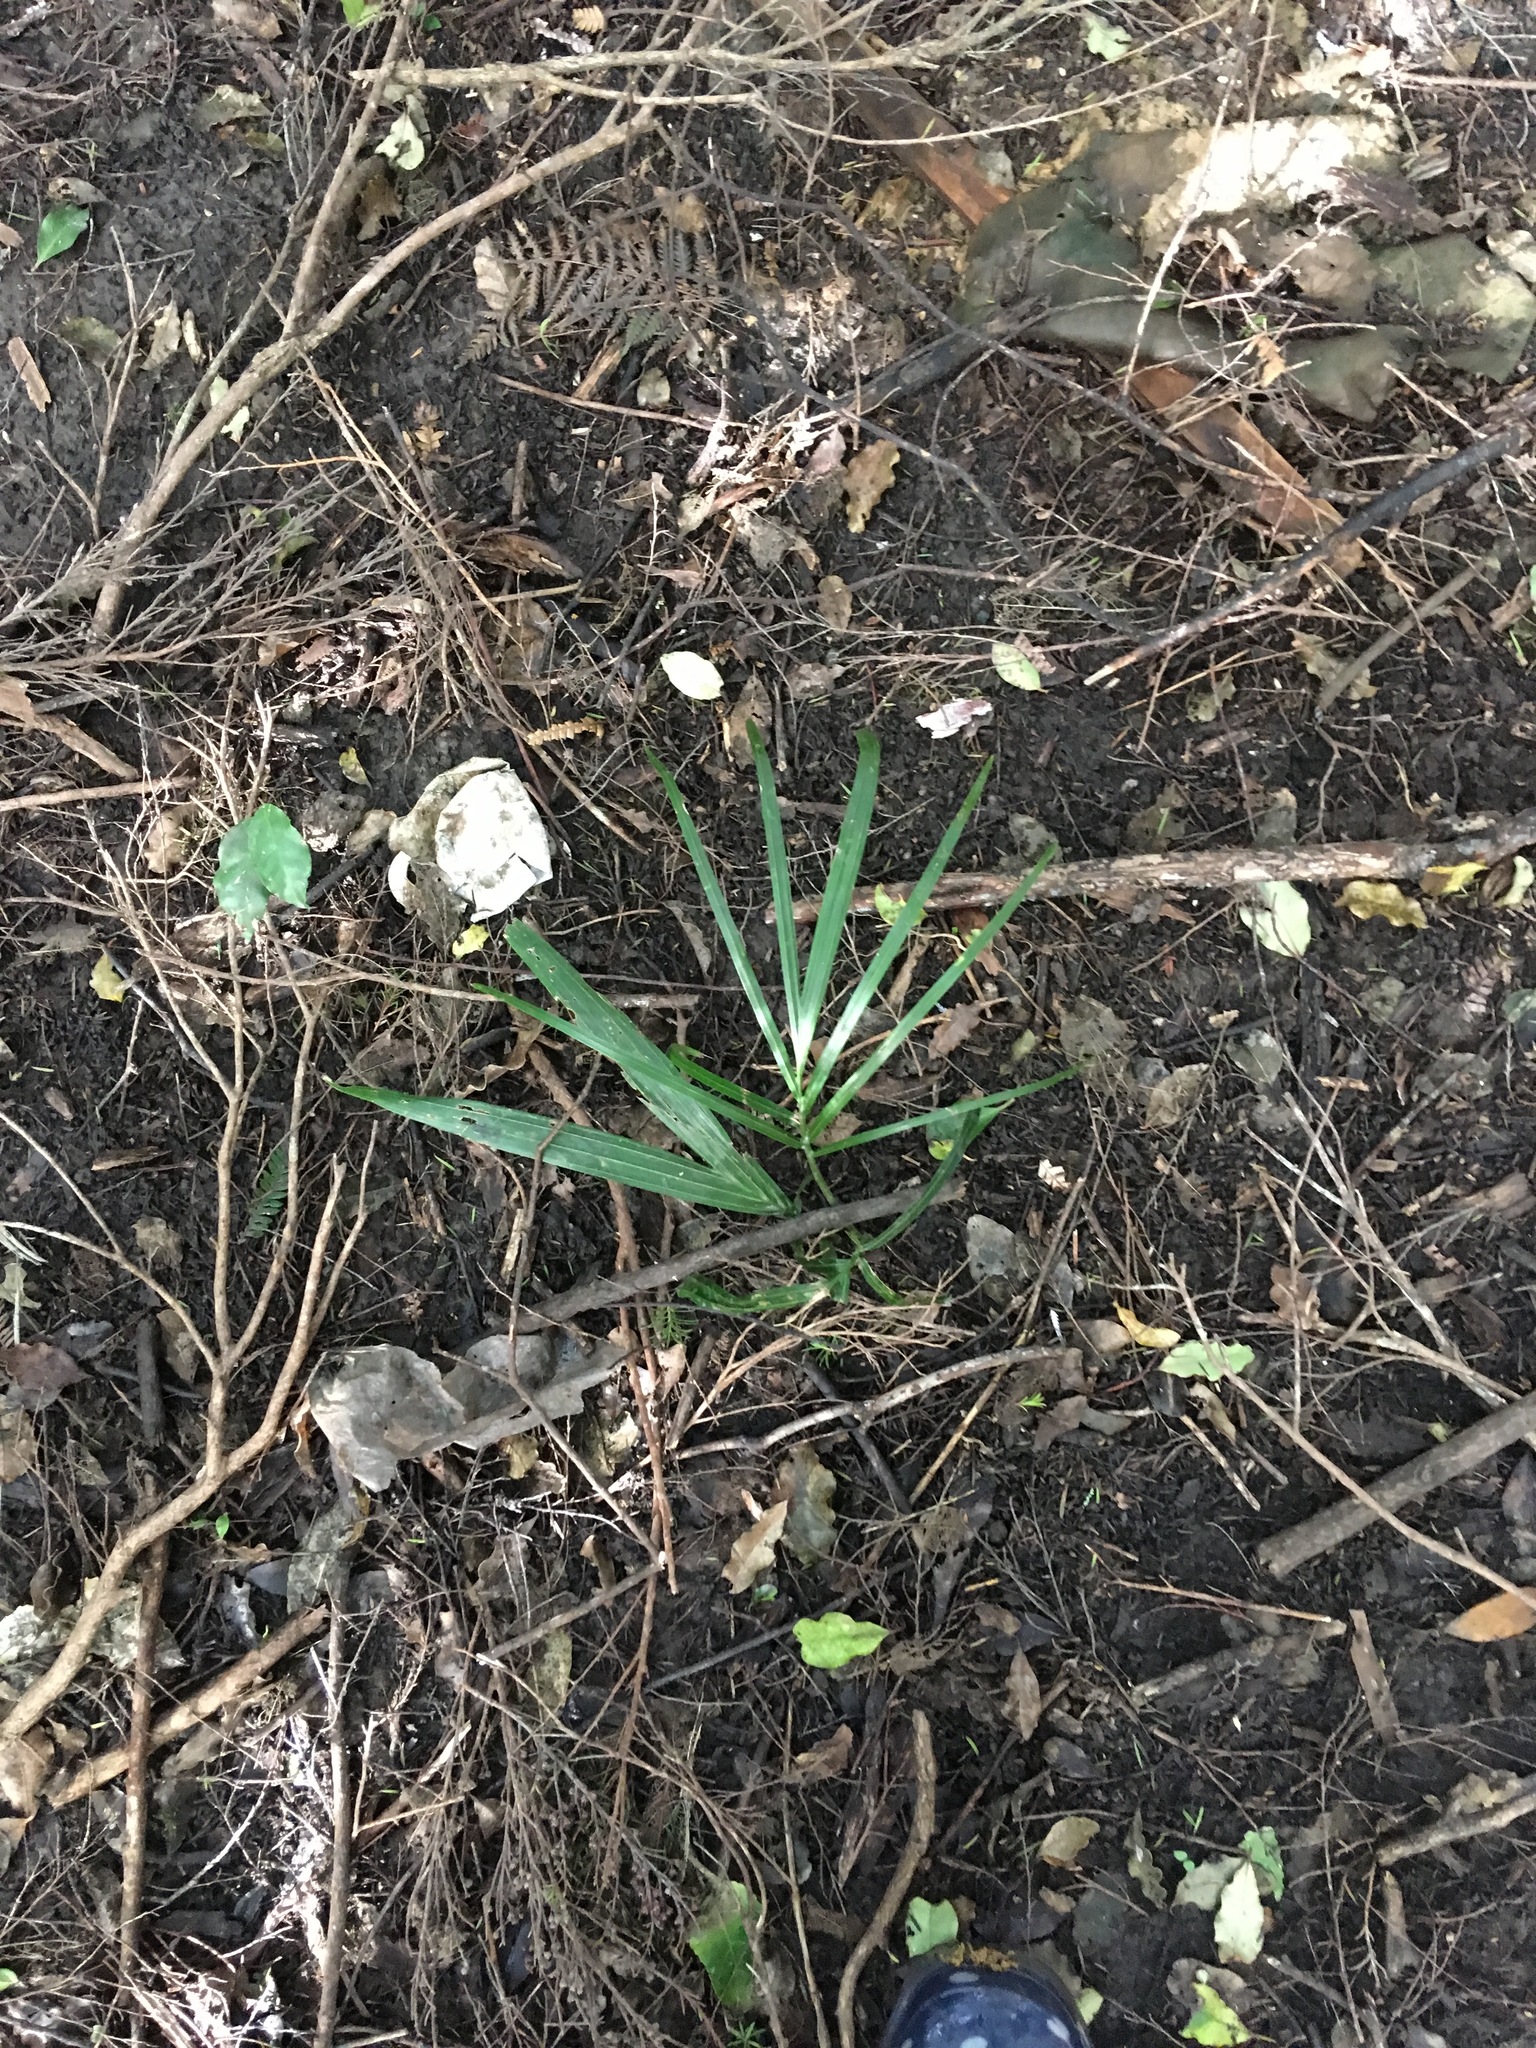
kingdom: Plantae
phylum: Tracheophyta
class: Liliopsida
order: Arecales
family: Arecaceae
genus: Rhopalostylis
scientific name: Rhopalostylis sapida
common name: Feather-duster palm
